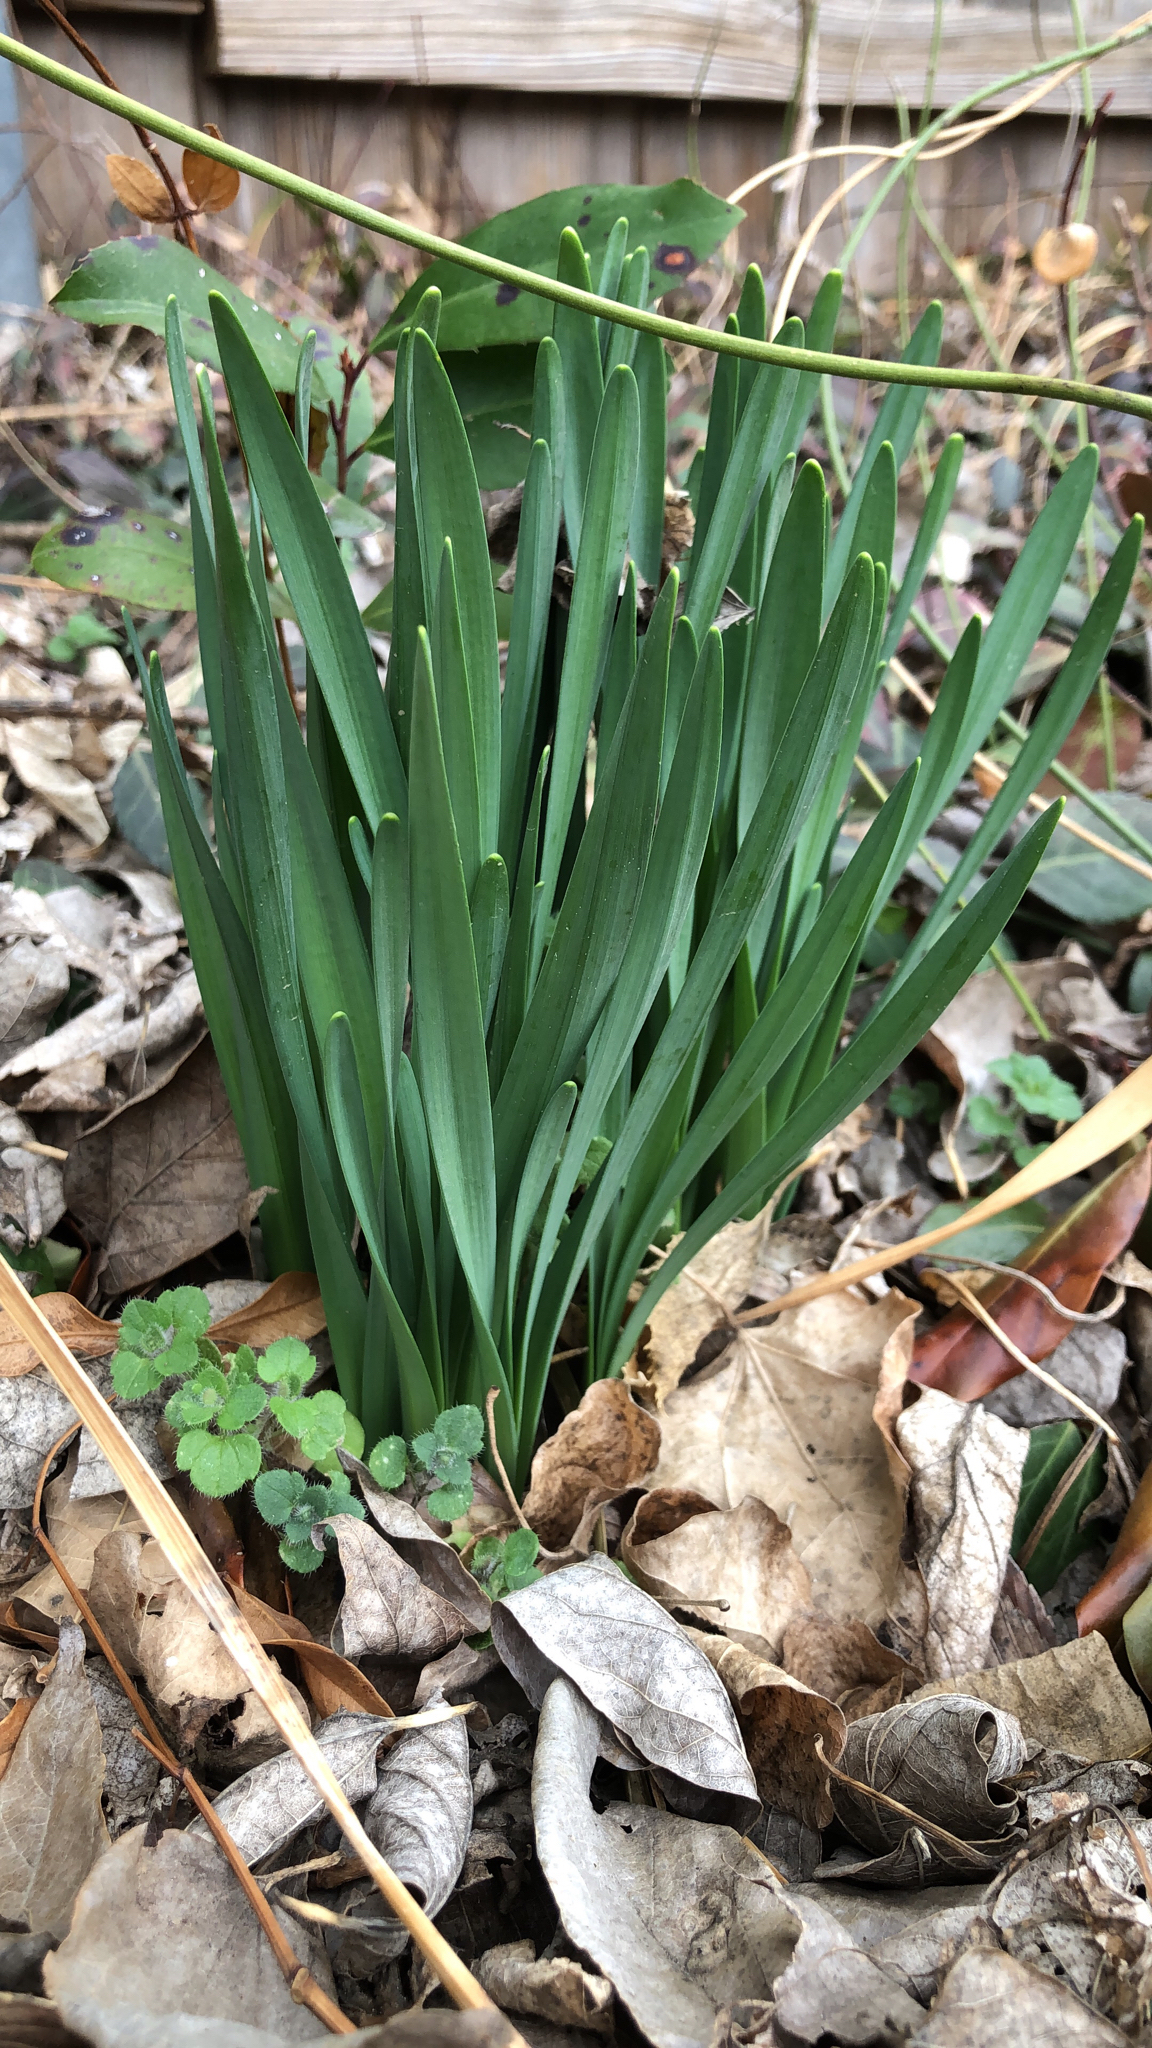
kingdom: Plantae
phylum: Tracheophyta
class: Liliopsida
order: Asparagales
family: Amaryllidaceae
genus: Narcissus
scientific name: Narcissus pseudonarcissus
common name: Daffodil
